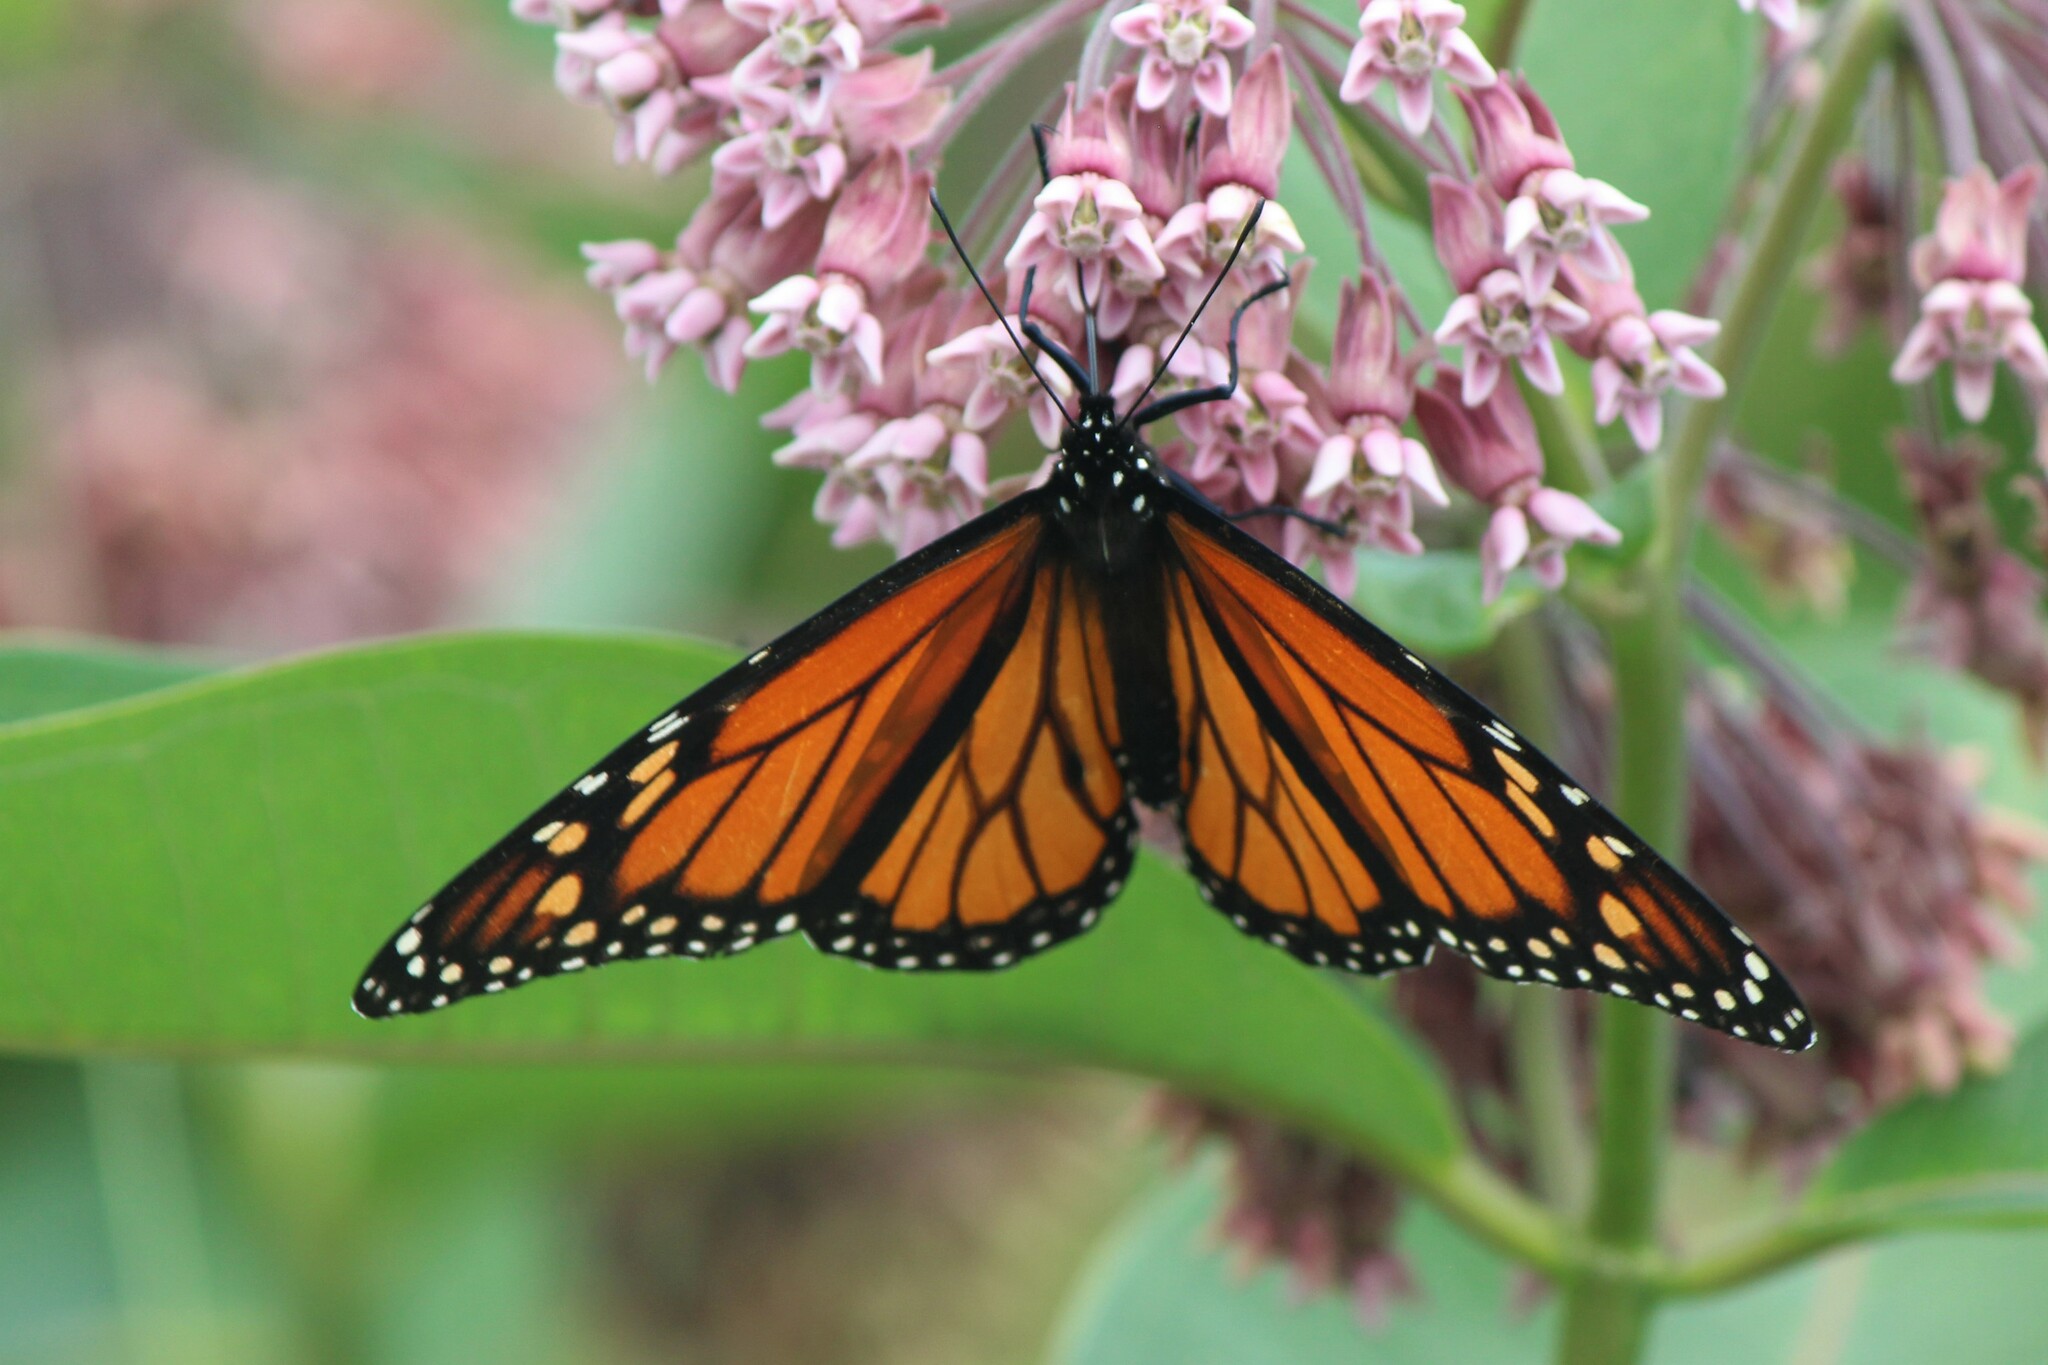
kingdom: Animalia
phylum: Arthropoda
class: Insecta
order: Lepidoptera
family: Nymphalidae
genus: Danaus
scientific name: Danaus plexippus
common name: Monarch
